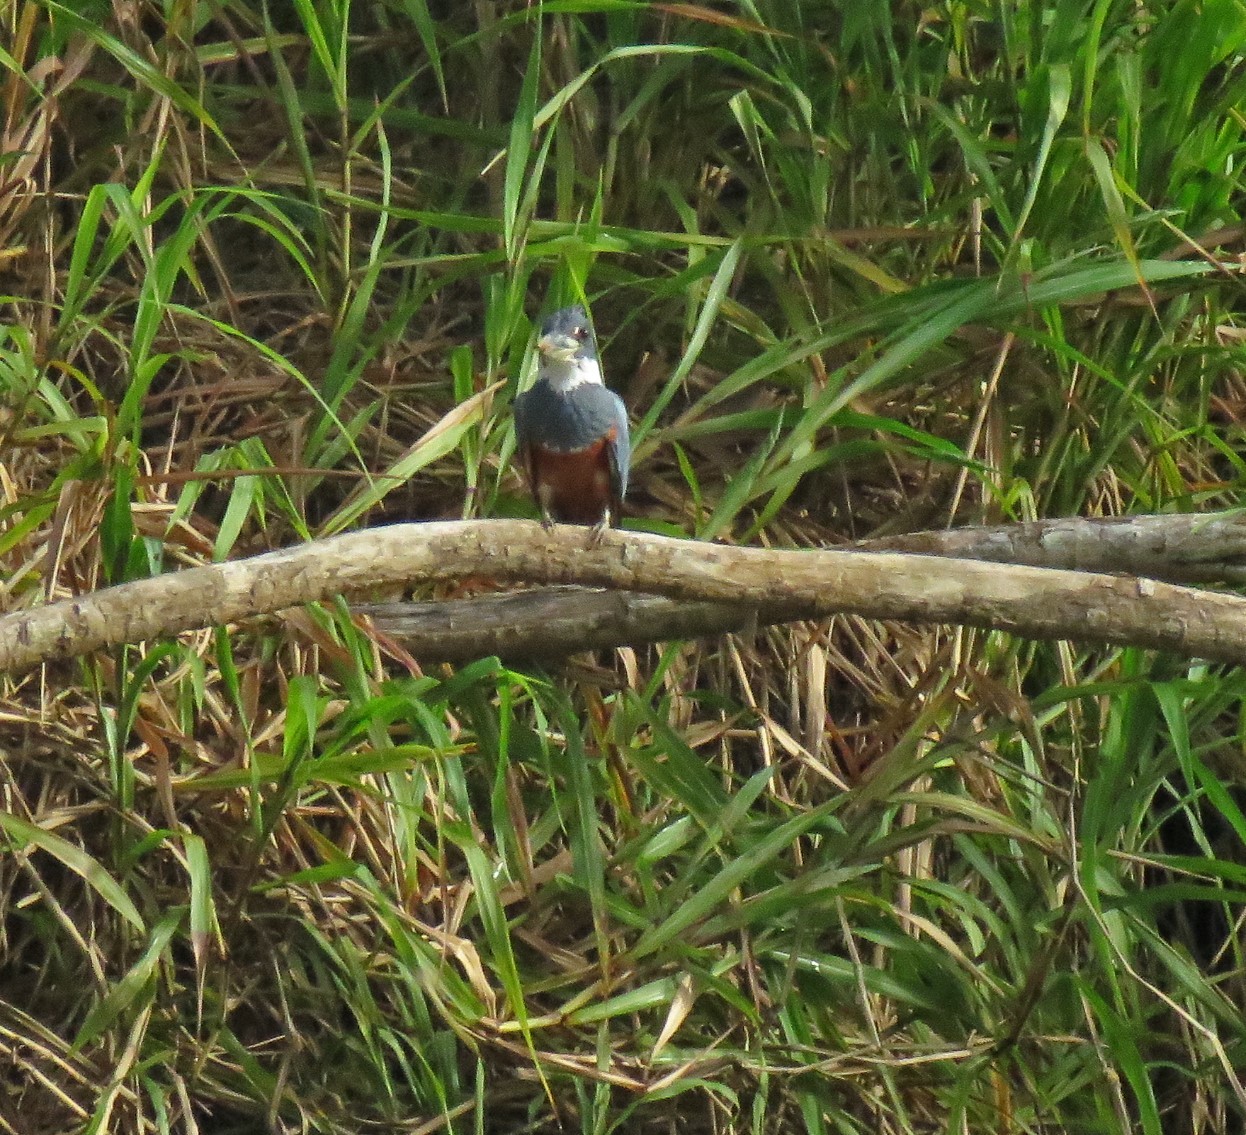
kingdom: Animalia
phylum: Chordata
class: Aves
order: Coraciiformes
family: Alcedinidae
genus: Megaceryle
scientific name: Megaceryle torquata
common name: Ringed kingfisher
